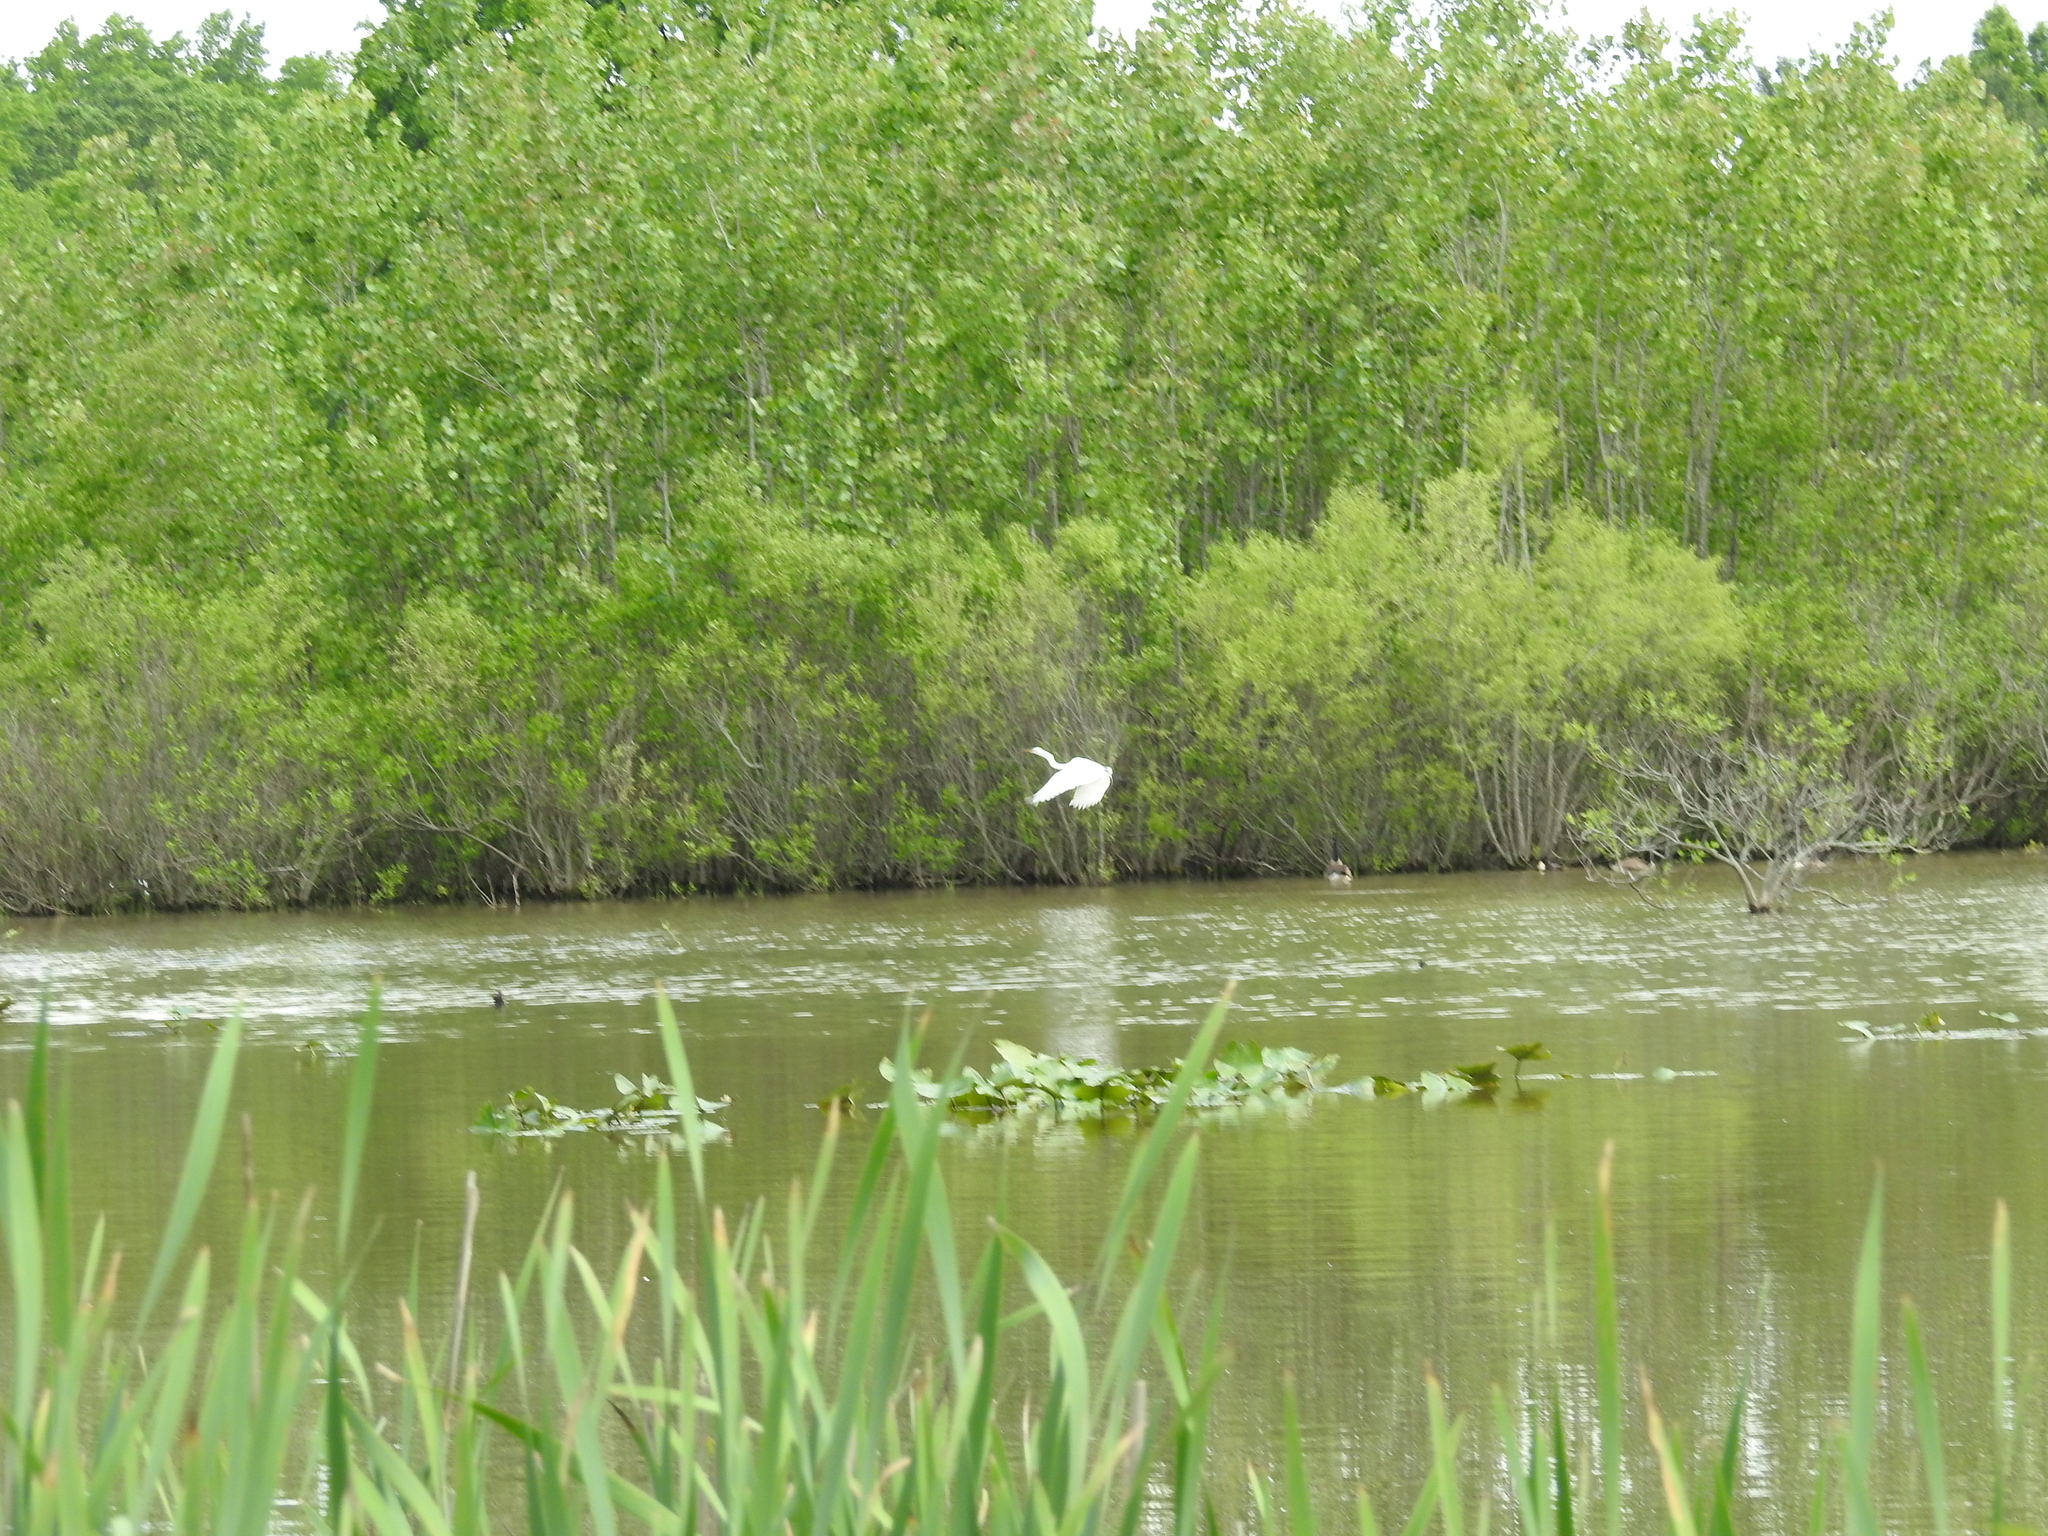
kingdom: Animalia
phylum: Chordata
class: Aves
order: Pelecaniformes
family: Ardeidae
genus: Ardea
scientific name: Ardea alba
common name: Great egret
